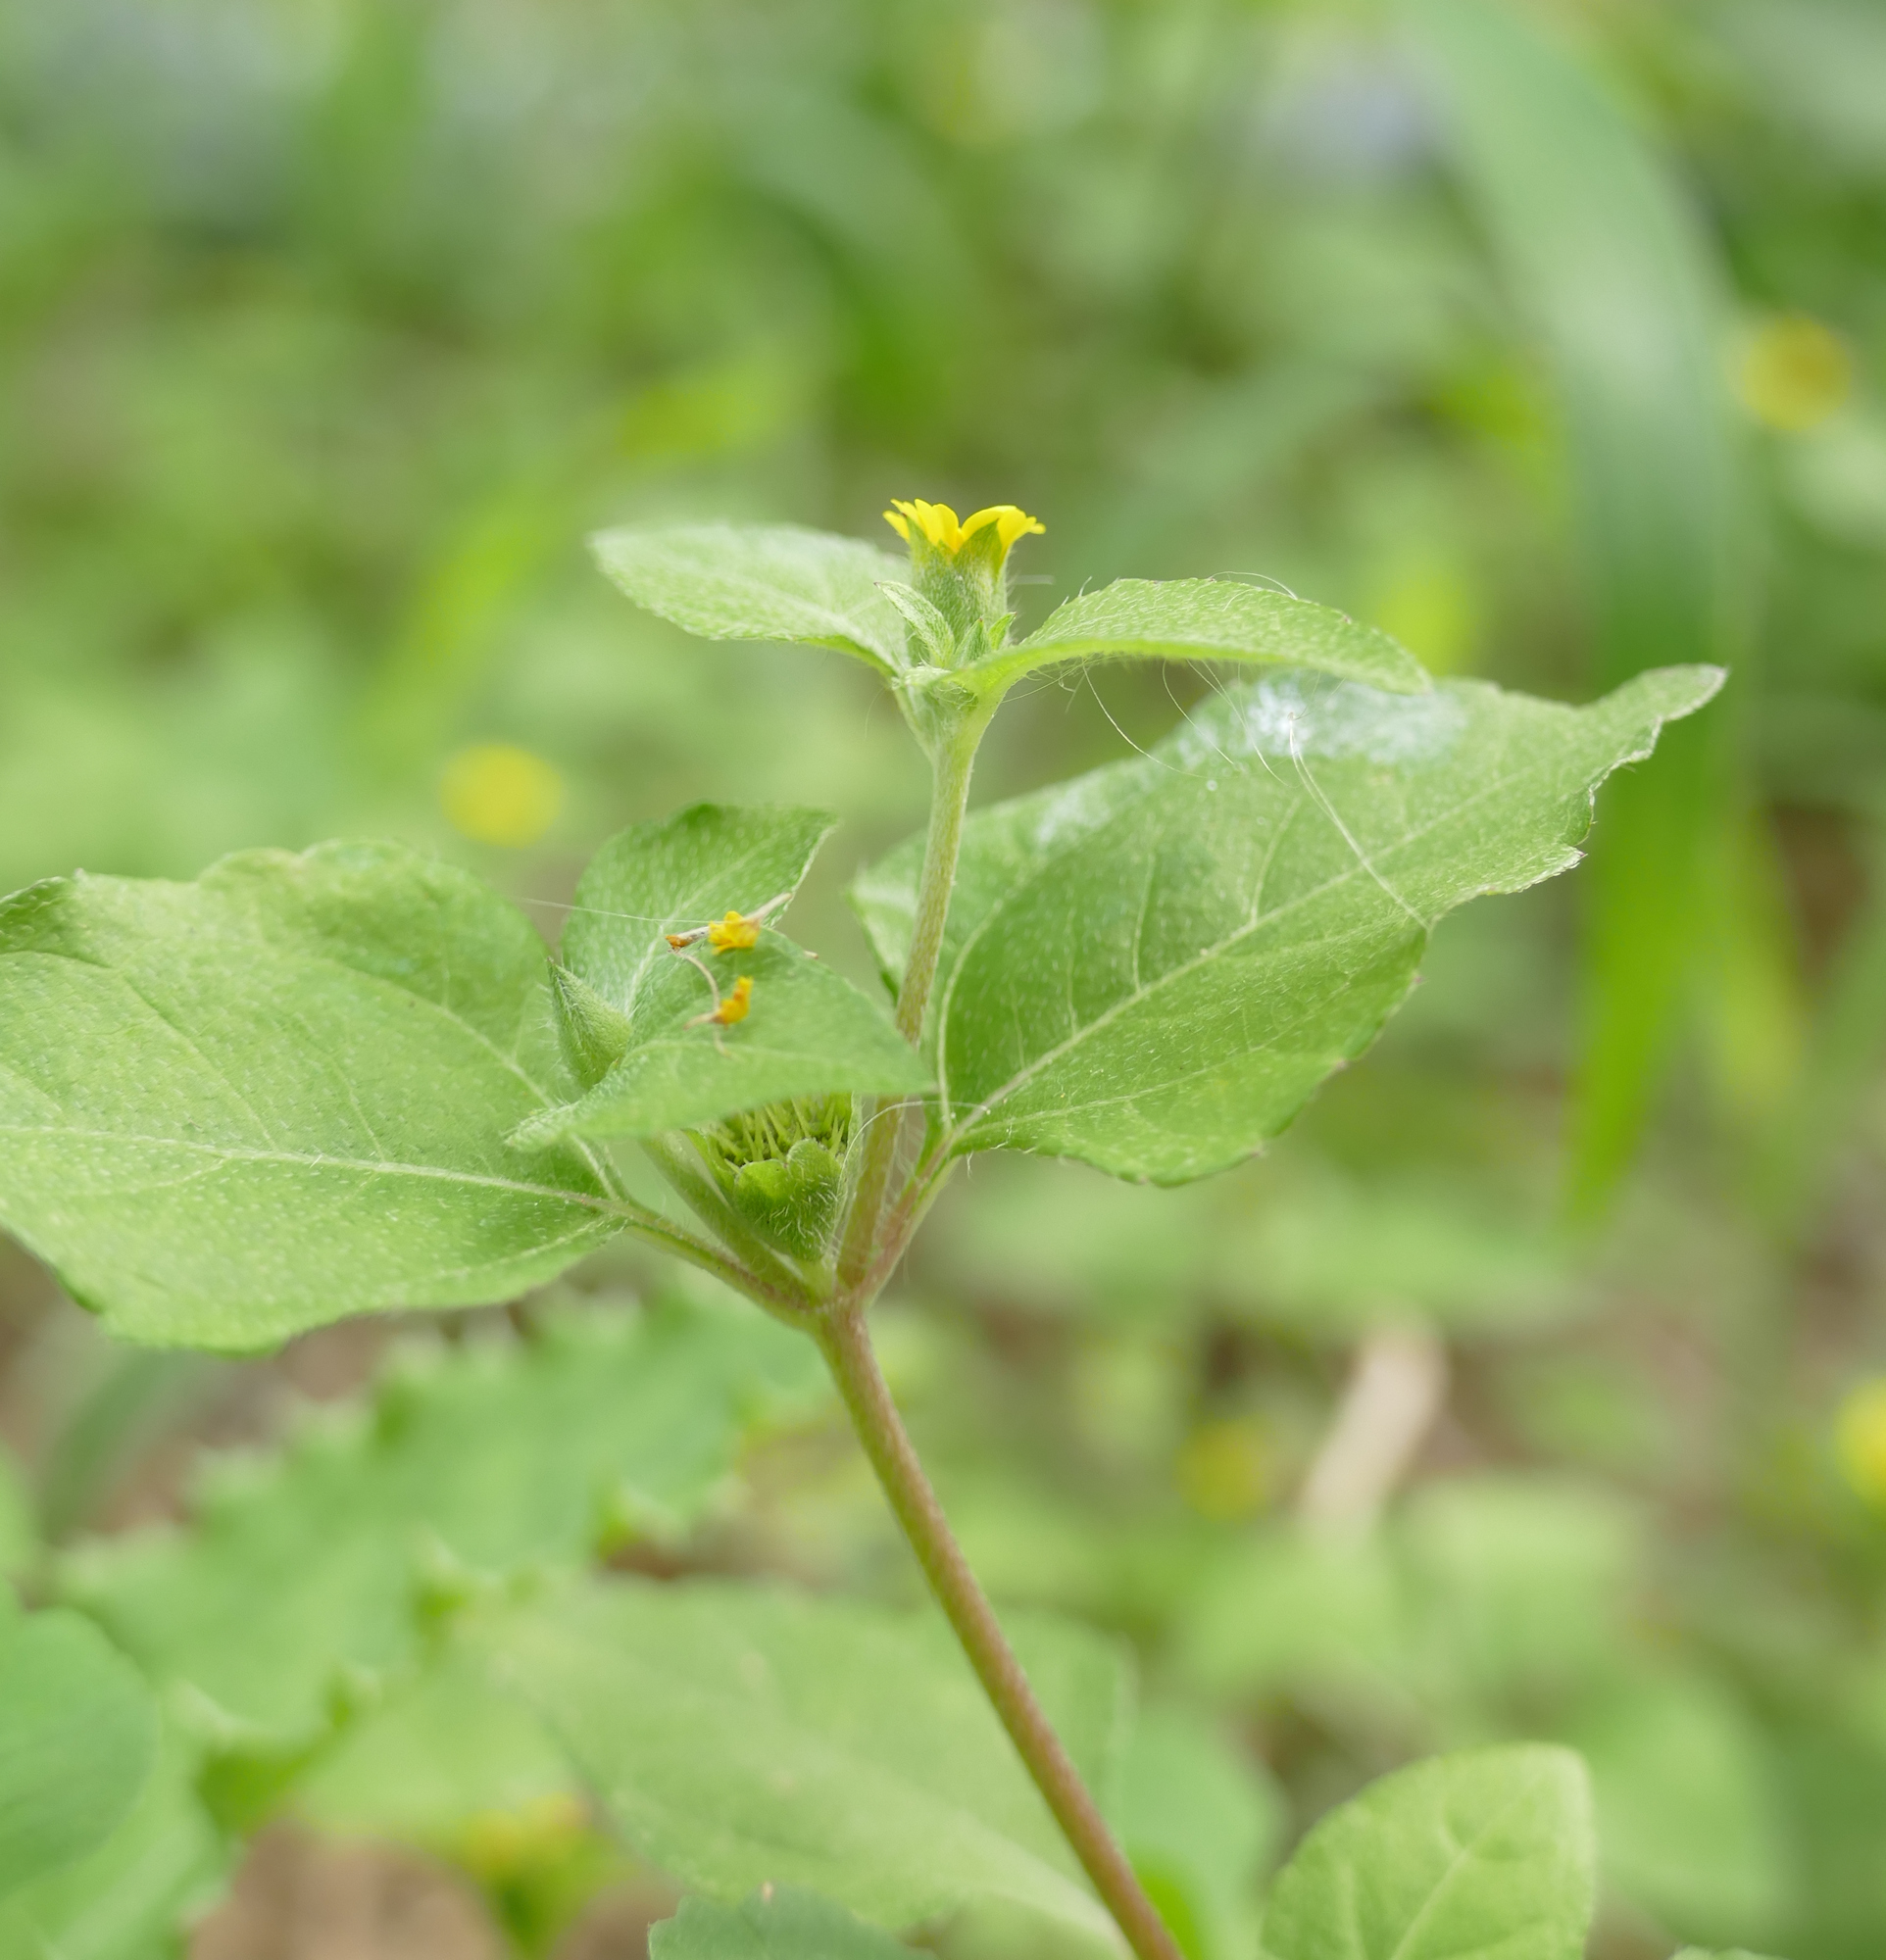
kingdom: Plantae
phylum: Tracheophyta
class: Magnoliopsida
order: Asterales
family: Asteraceae
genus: Calyptocarpus
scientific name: Calyptocarpus vialis
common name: Straggler daisy
